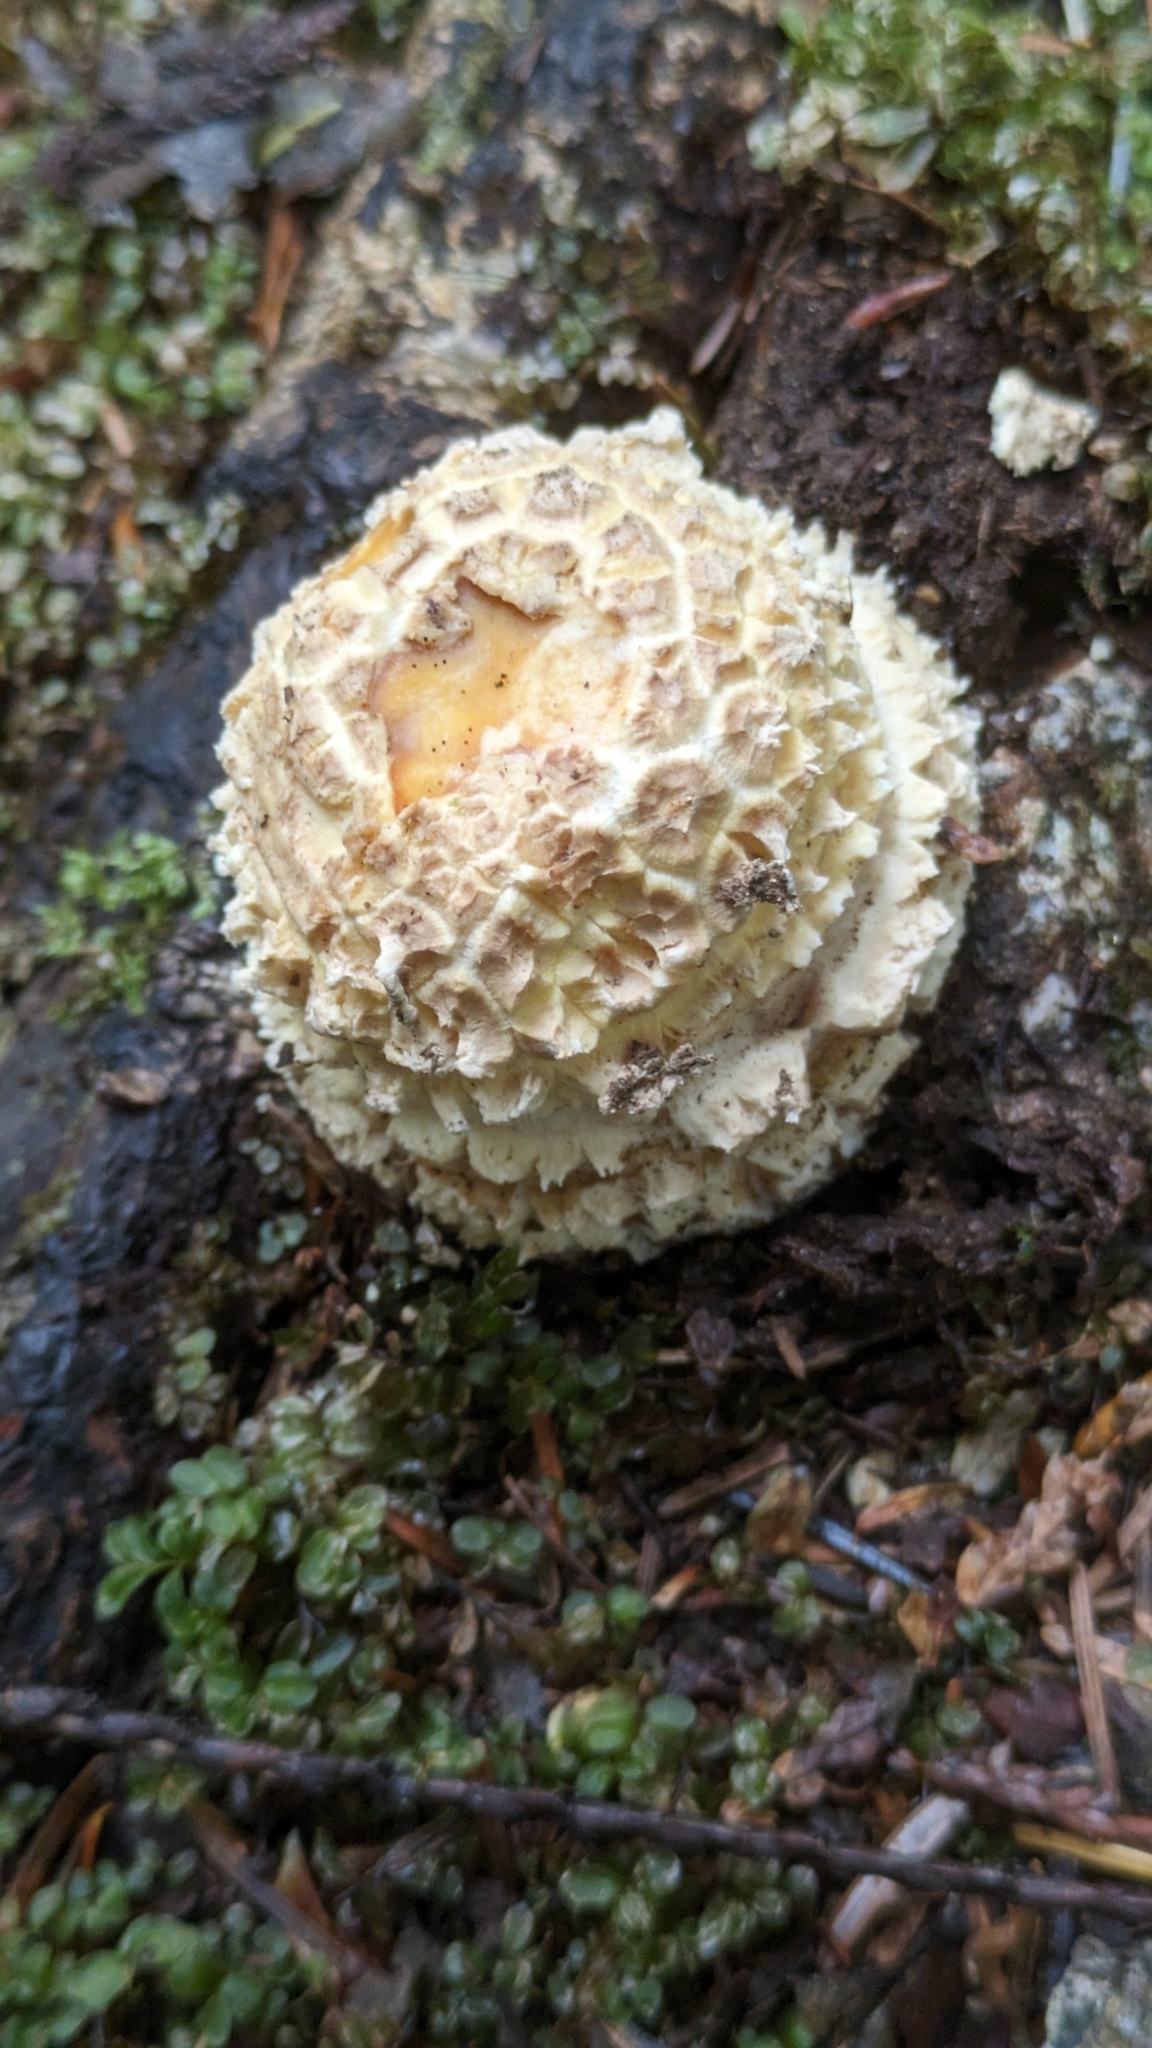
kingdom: Fungi
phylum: Basidiomycota
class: Agaricomycetes
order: Agaricales
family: Amanitaceae
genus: Amanita
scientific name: Amanita muscaria
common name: Fly agaric
